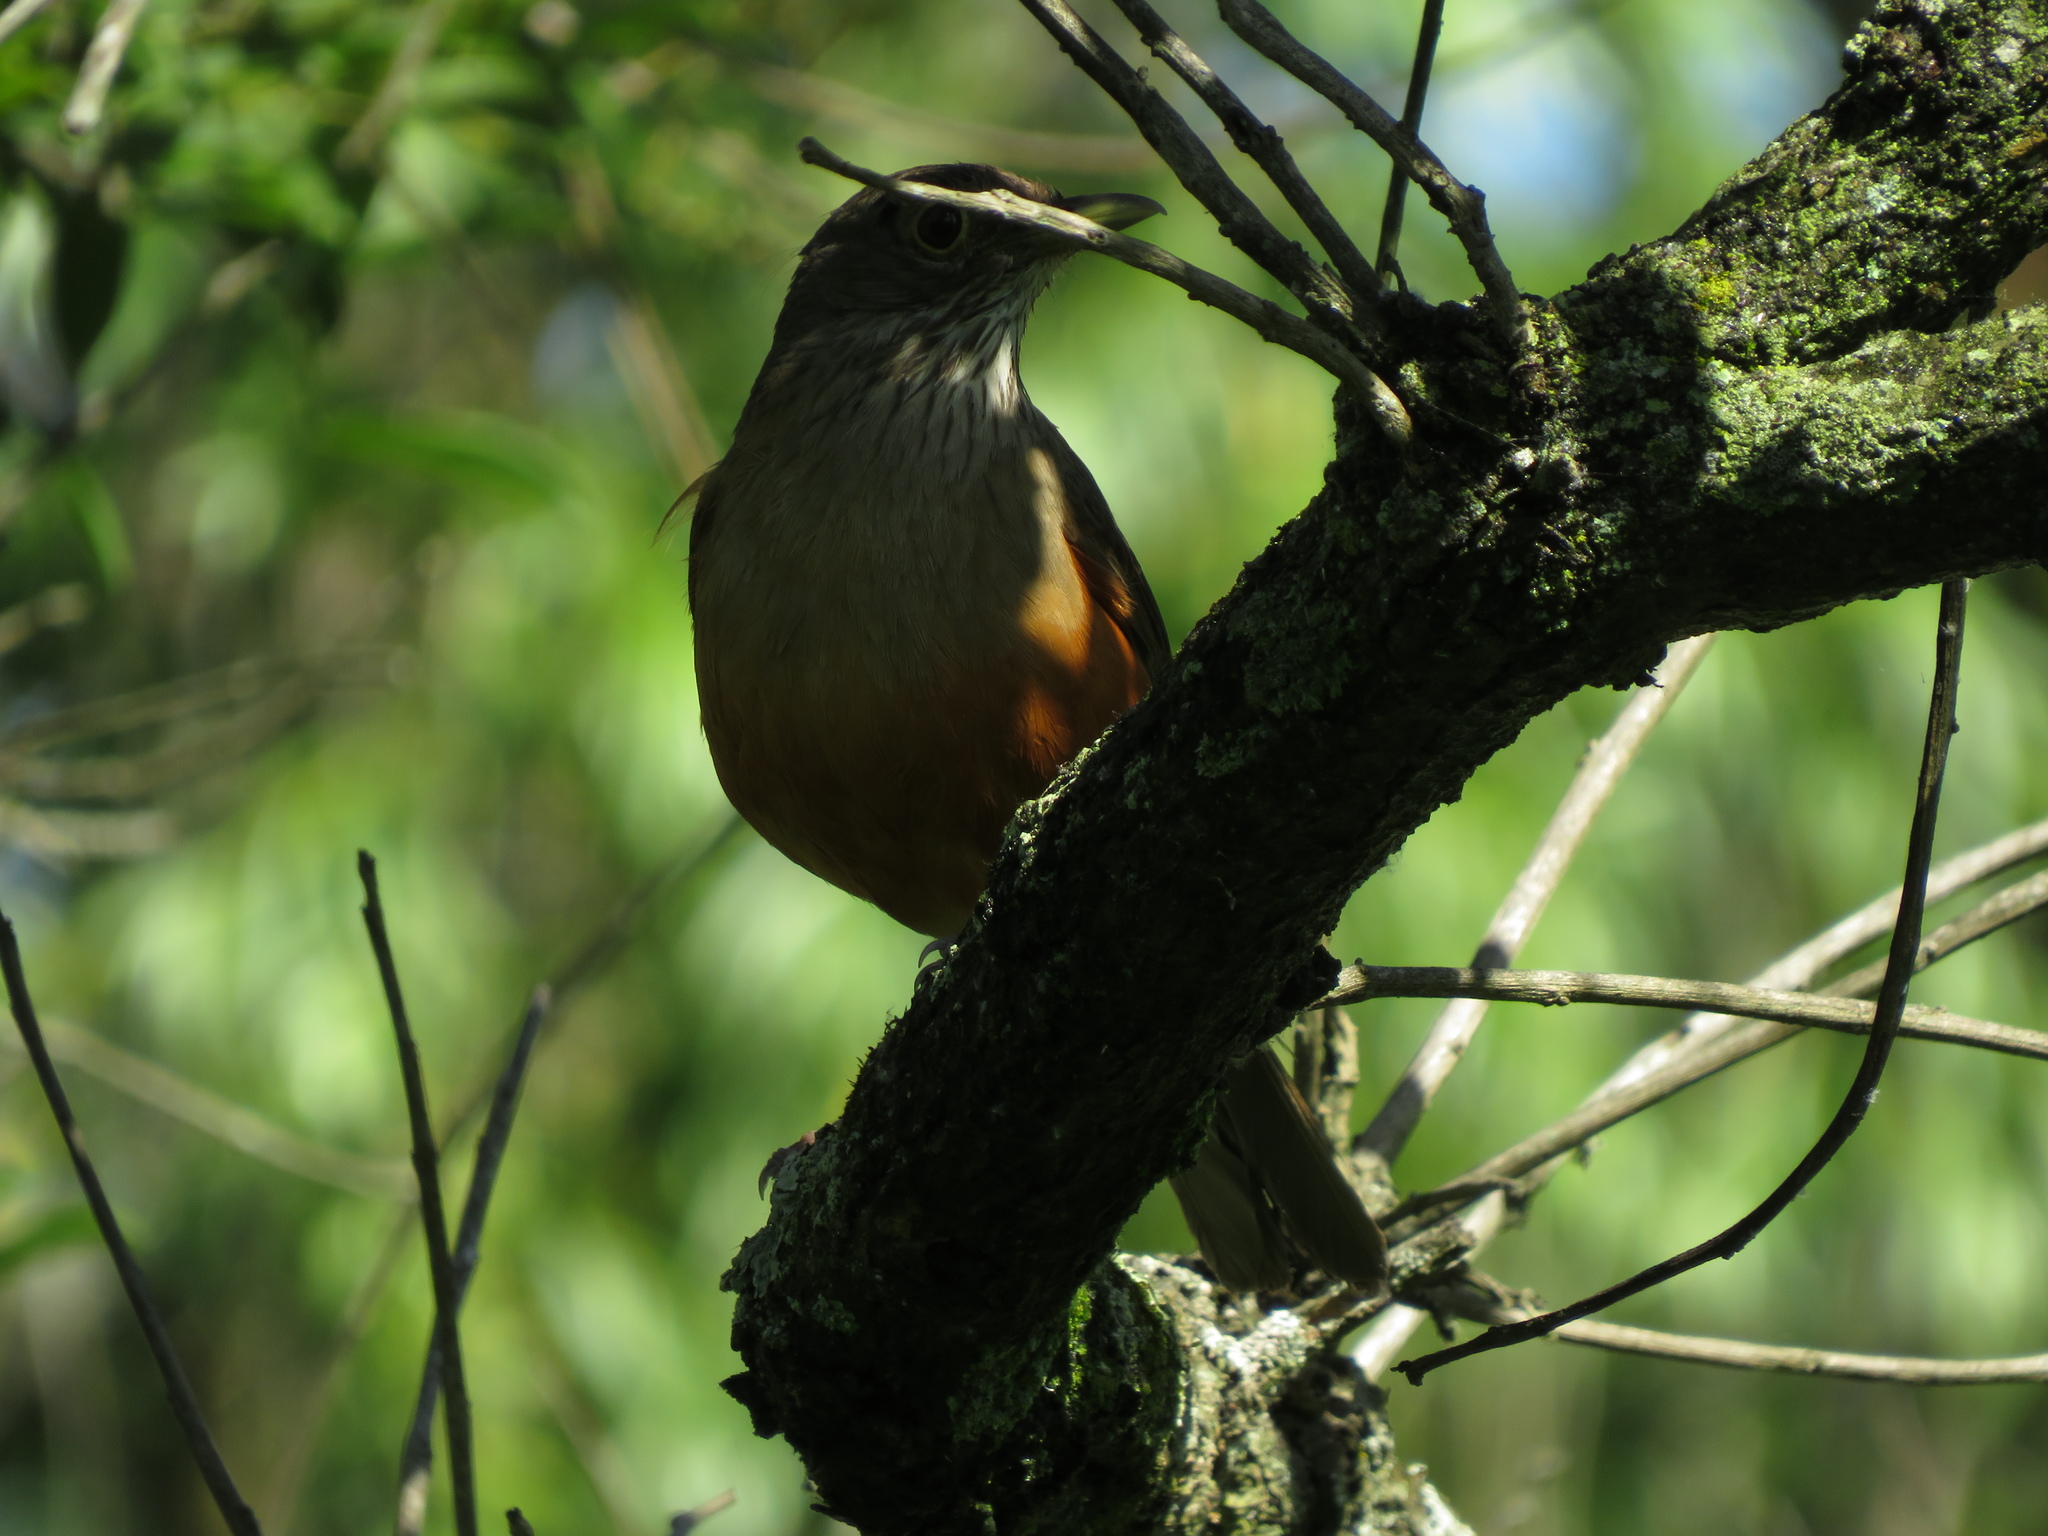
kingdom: Animalia
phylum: Chordata
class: Aves
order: Passeriformes
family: Turdidae
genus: Turdus
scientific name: Turdus rufiventris
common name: Rufous-bellied thrush
